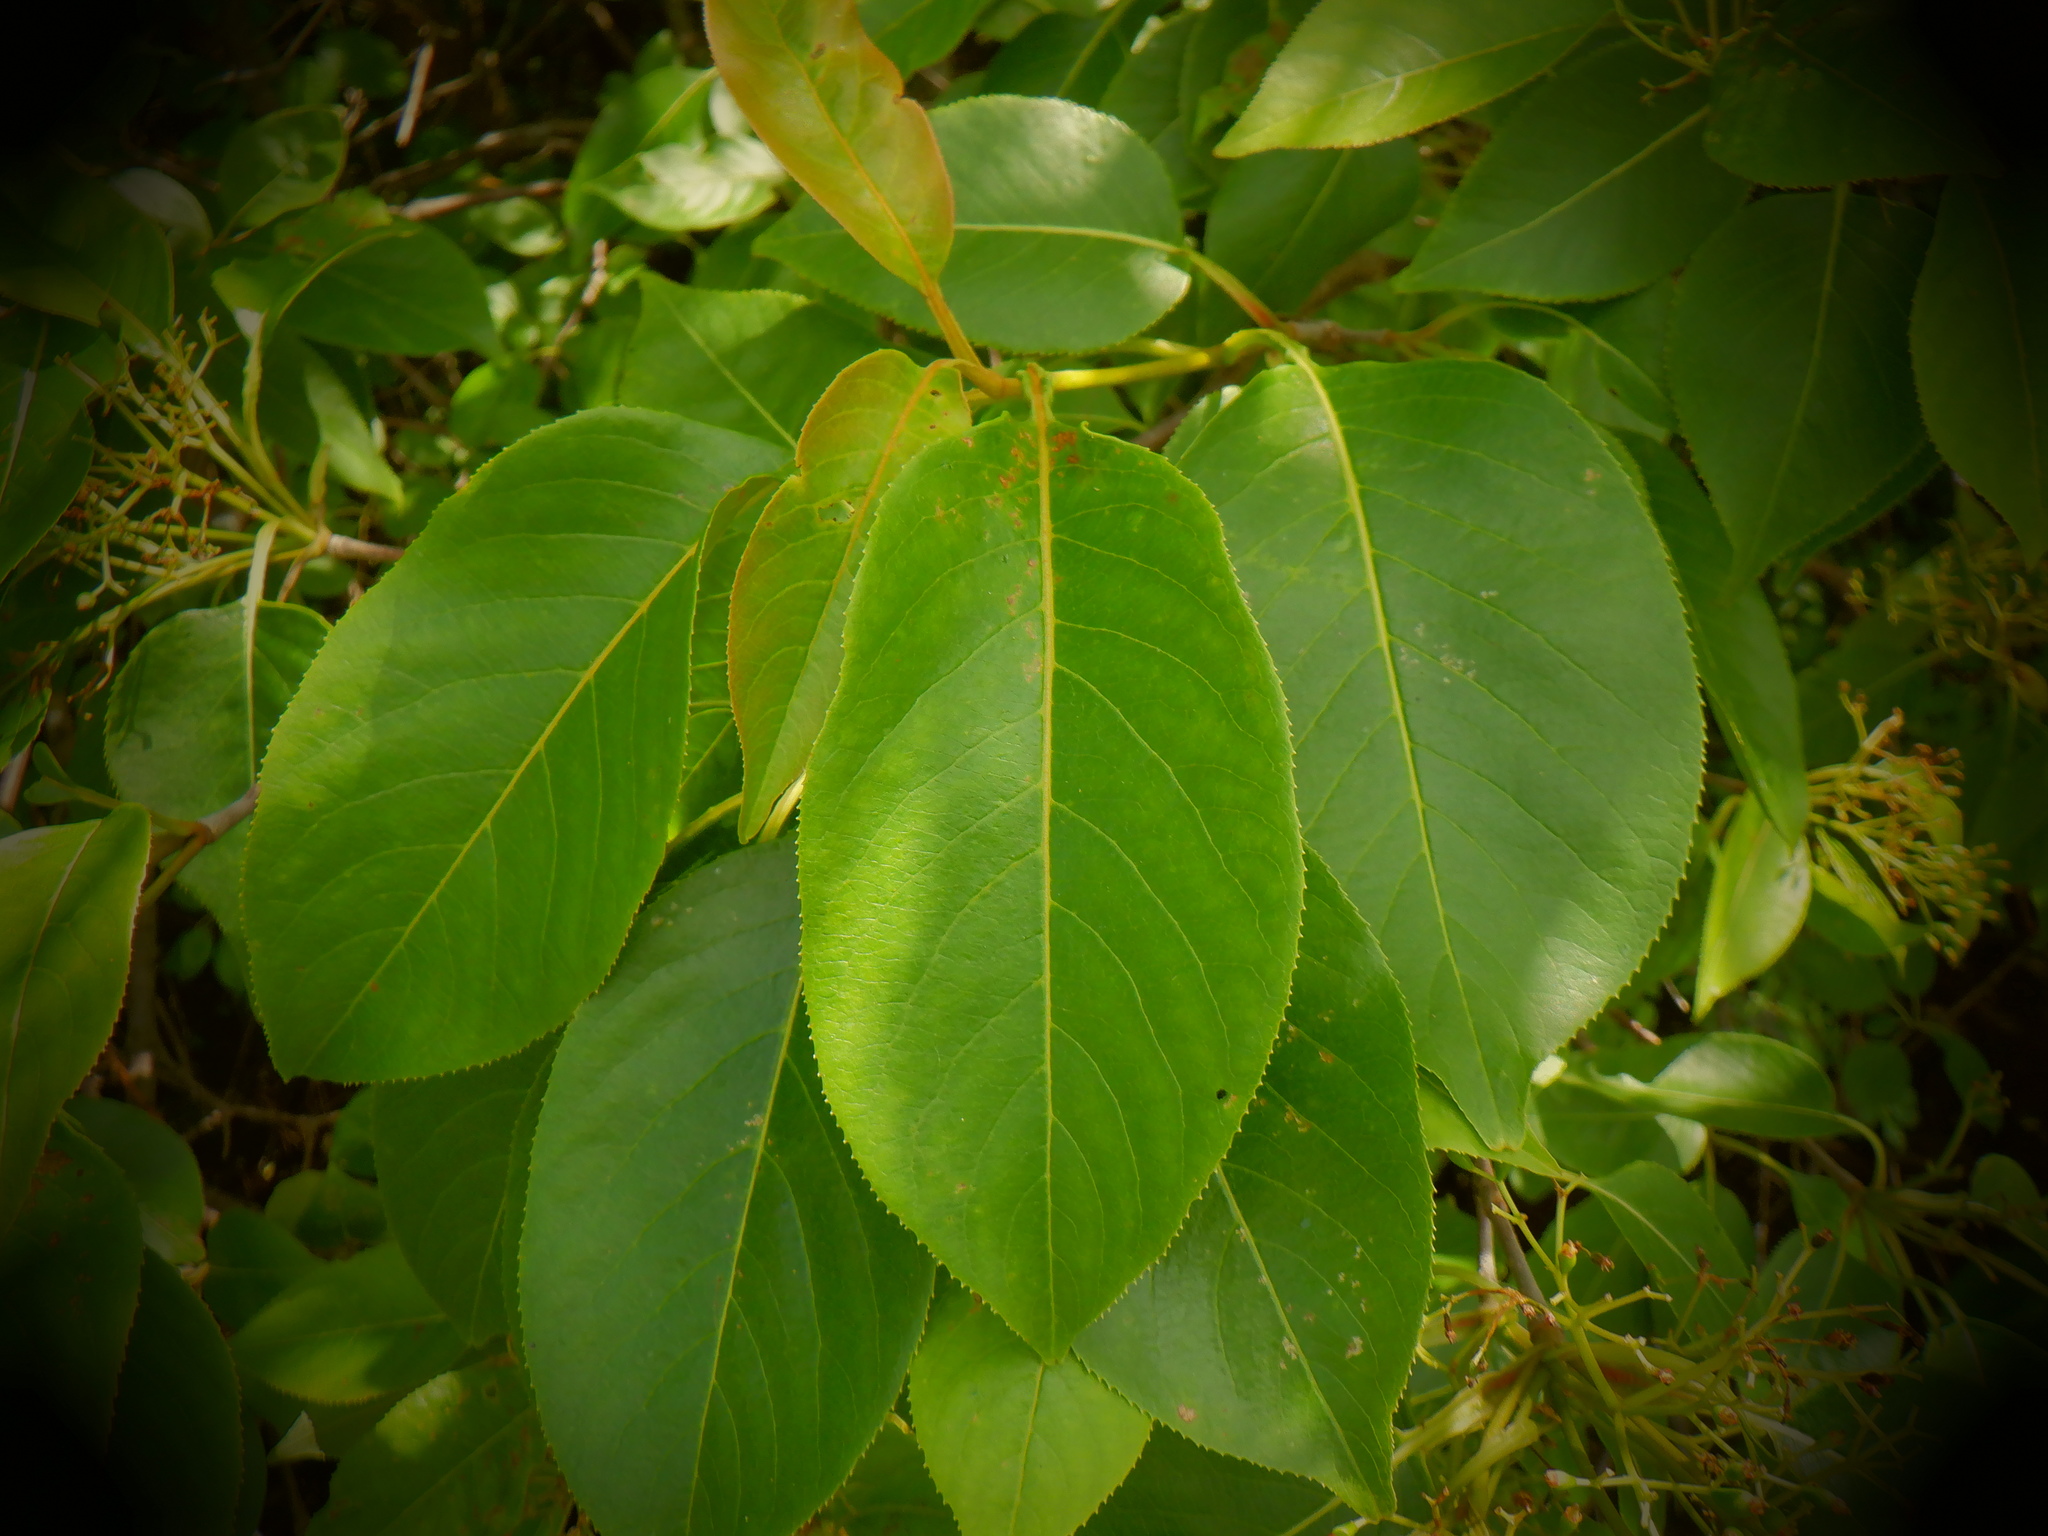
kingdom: Plantae
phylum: Tracheophyta
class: Magnoliopsida
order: Dipsacales
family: Viburnaceae
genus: Viburnum
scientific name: Viburnum lentago
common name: Black haw
